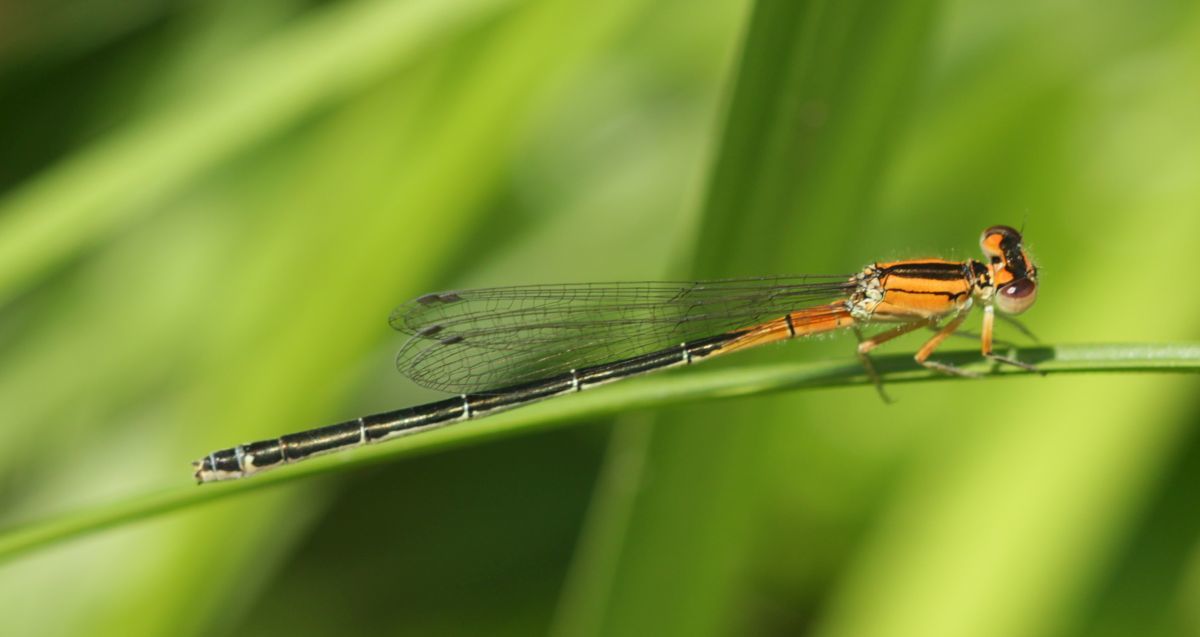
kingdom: Animalia
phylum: Arthropoda
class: Insecta
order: Odonata
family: Coenagrionidae
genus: Ischnura
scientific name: Ischnura verticalis
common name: Eastern forktail
